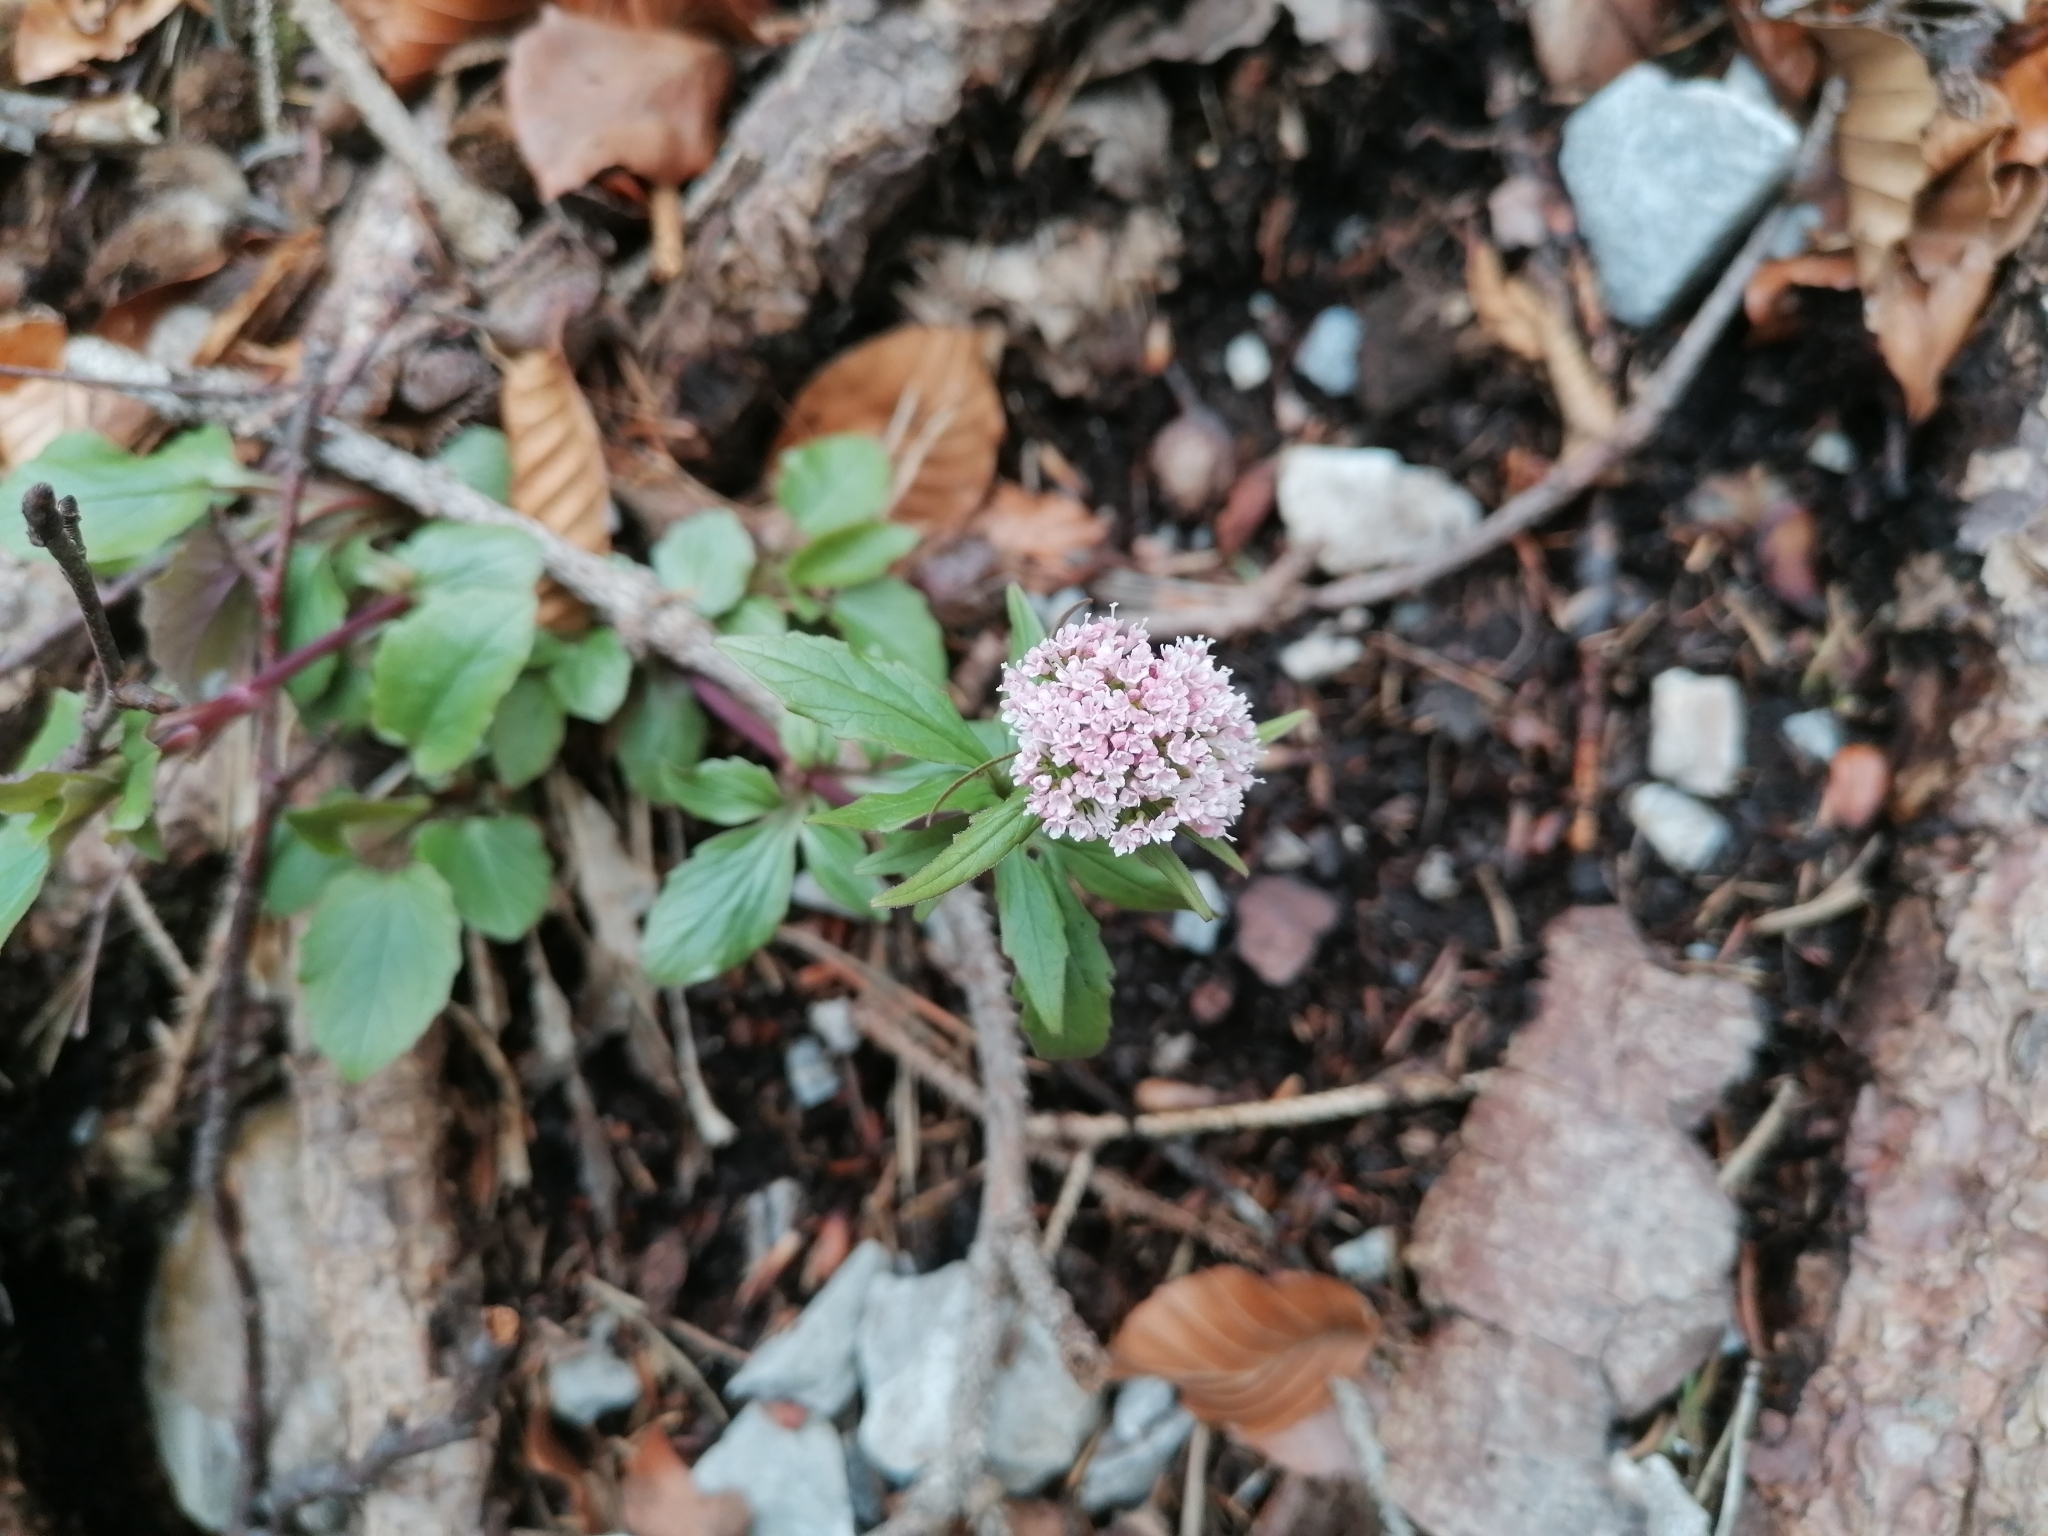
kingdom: Plantae
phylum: Tracheophyta
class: Magnoliopsida
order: Dipsacales
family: Caprifoliaceae
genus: Valeriana
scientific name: Valeriana tripteris
